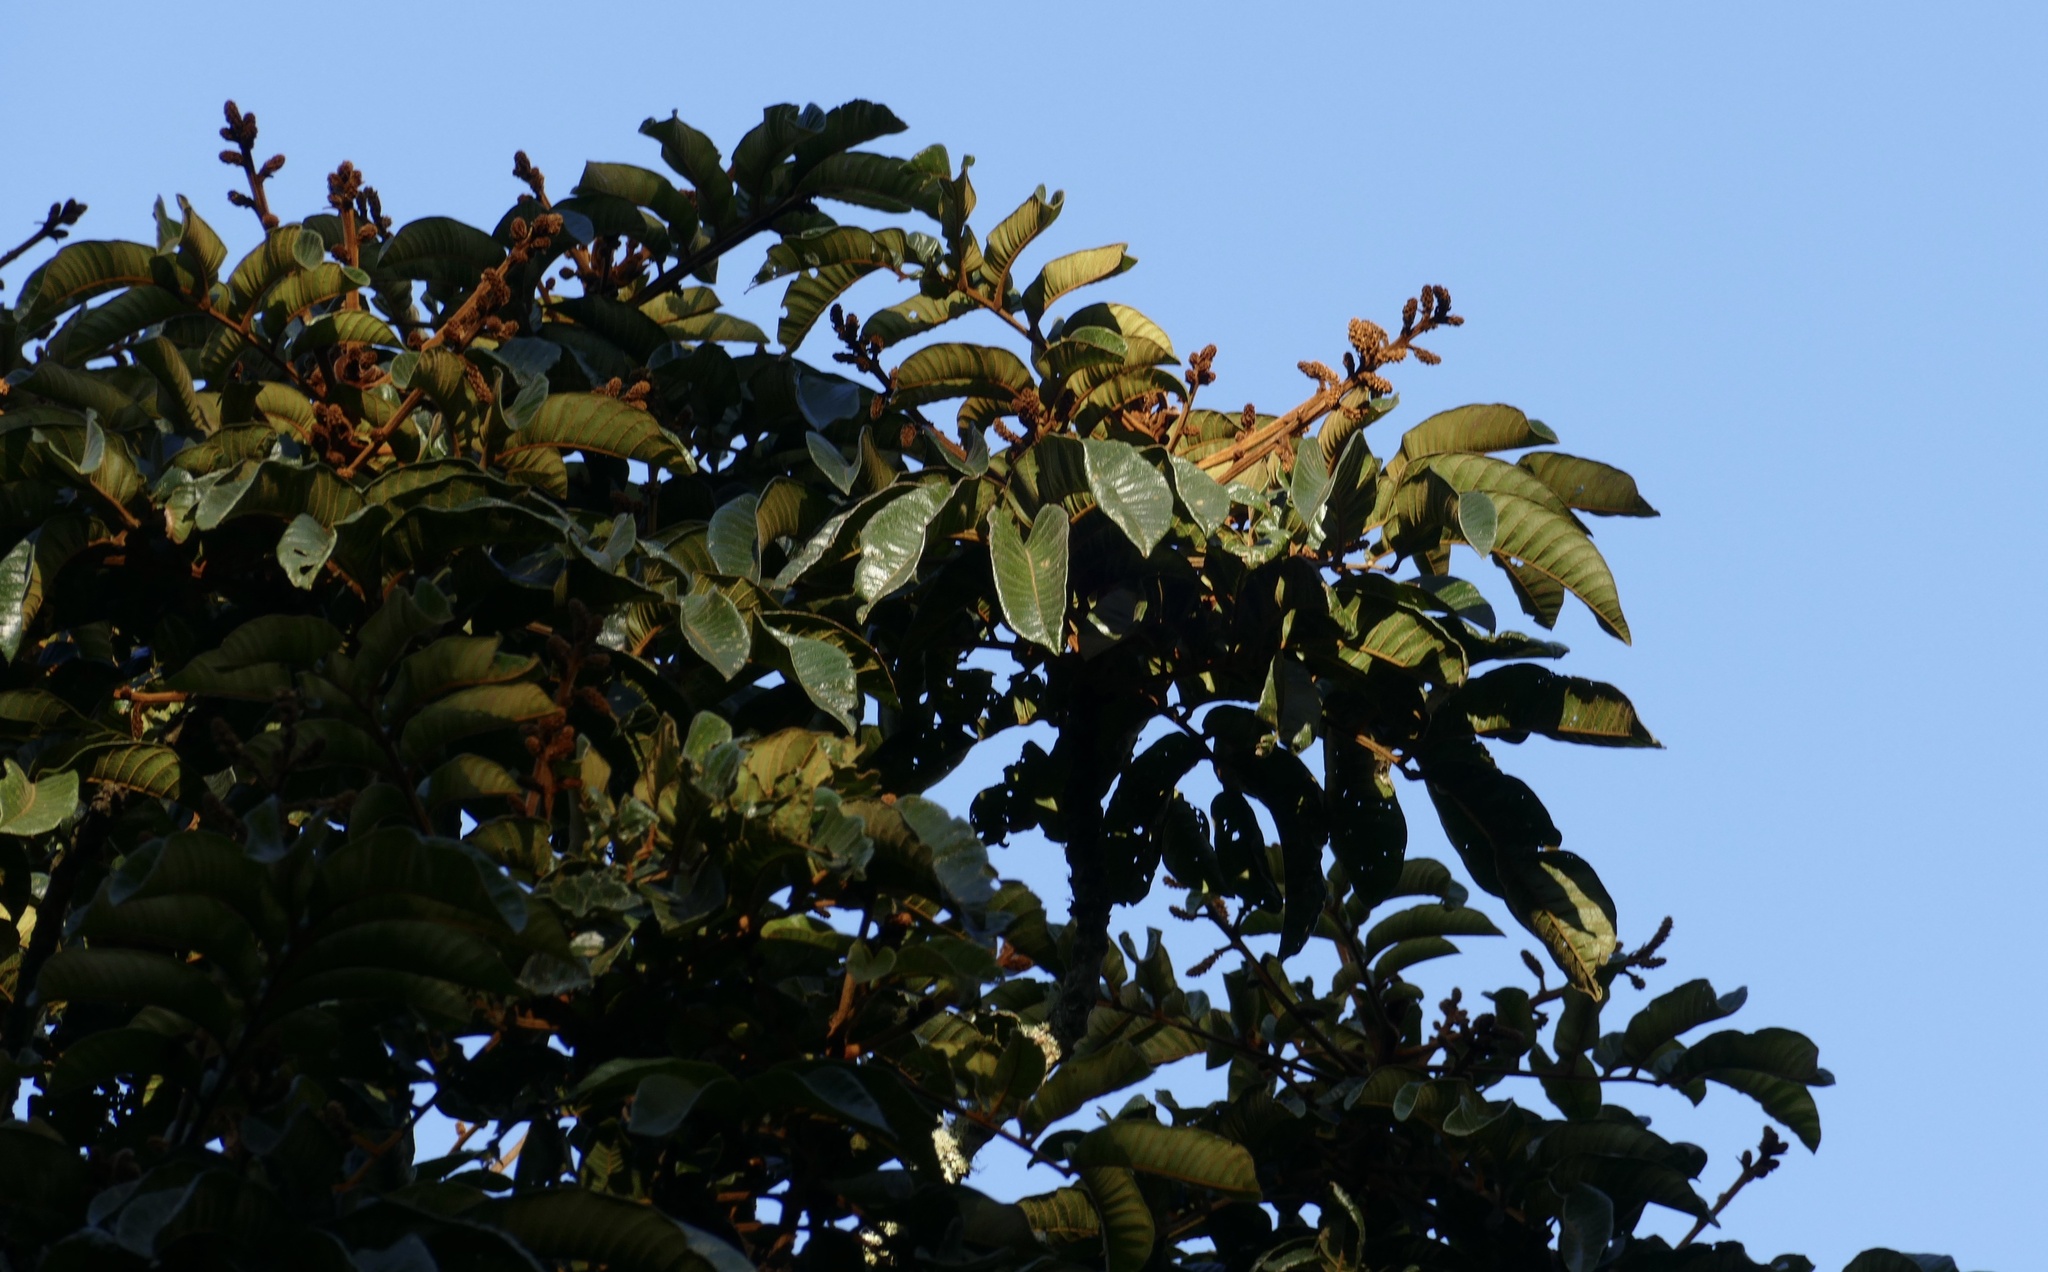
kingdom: Plantae
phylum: Tracheophyta
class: Magnoliopsida
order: Sapindales
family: Sapindaceae
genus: Diploglottis
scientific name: Diploglottis australis
